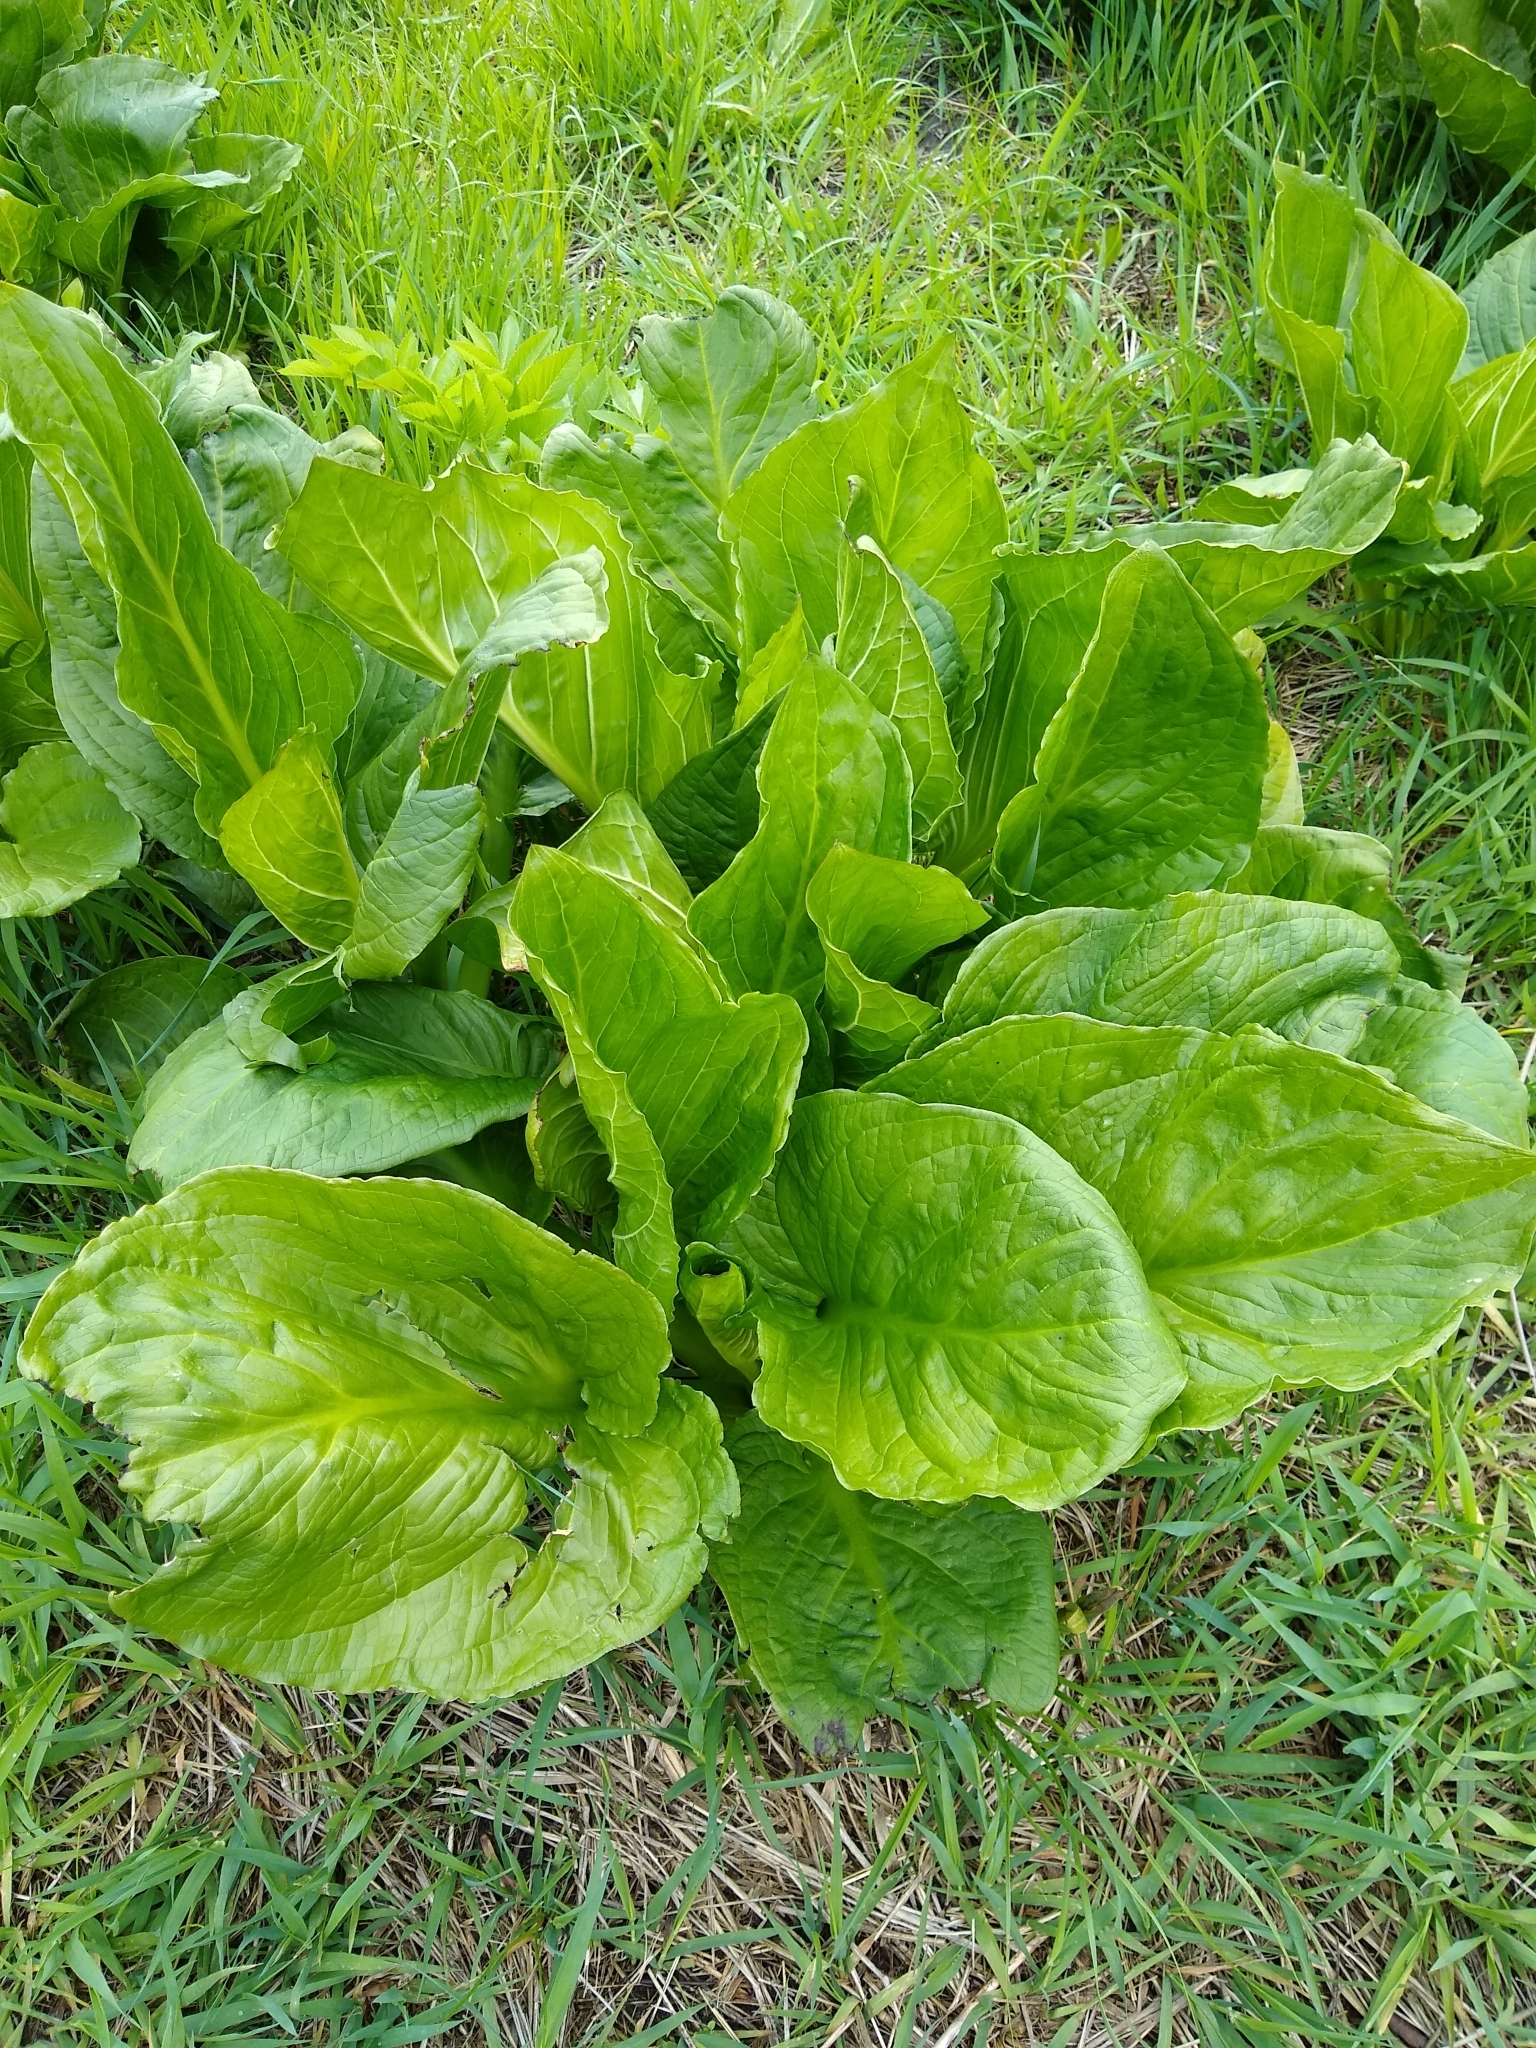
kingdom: Plantae
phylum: Tracheophyta
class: Liliopsida
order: Alismatales
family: Araceae
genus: Symplocarpus
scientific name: Symplocarpus foetidus
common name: Eastern skunk cabbage
